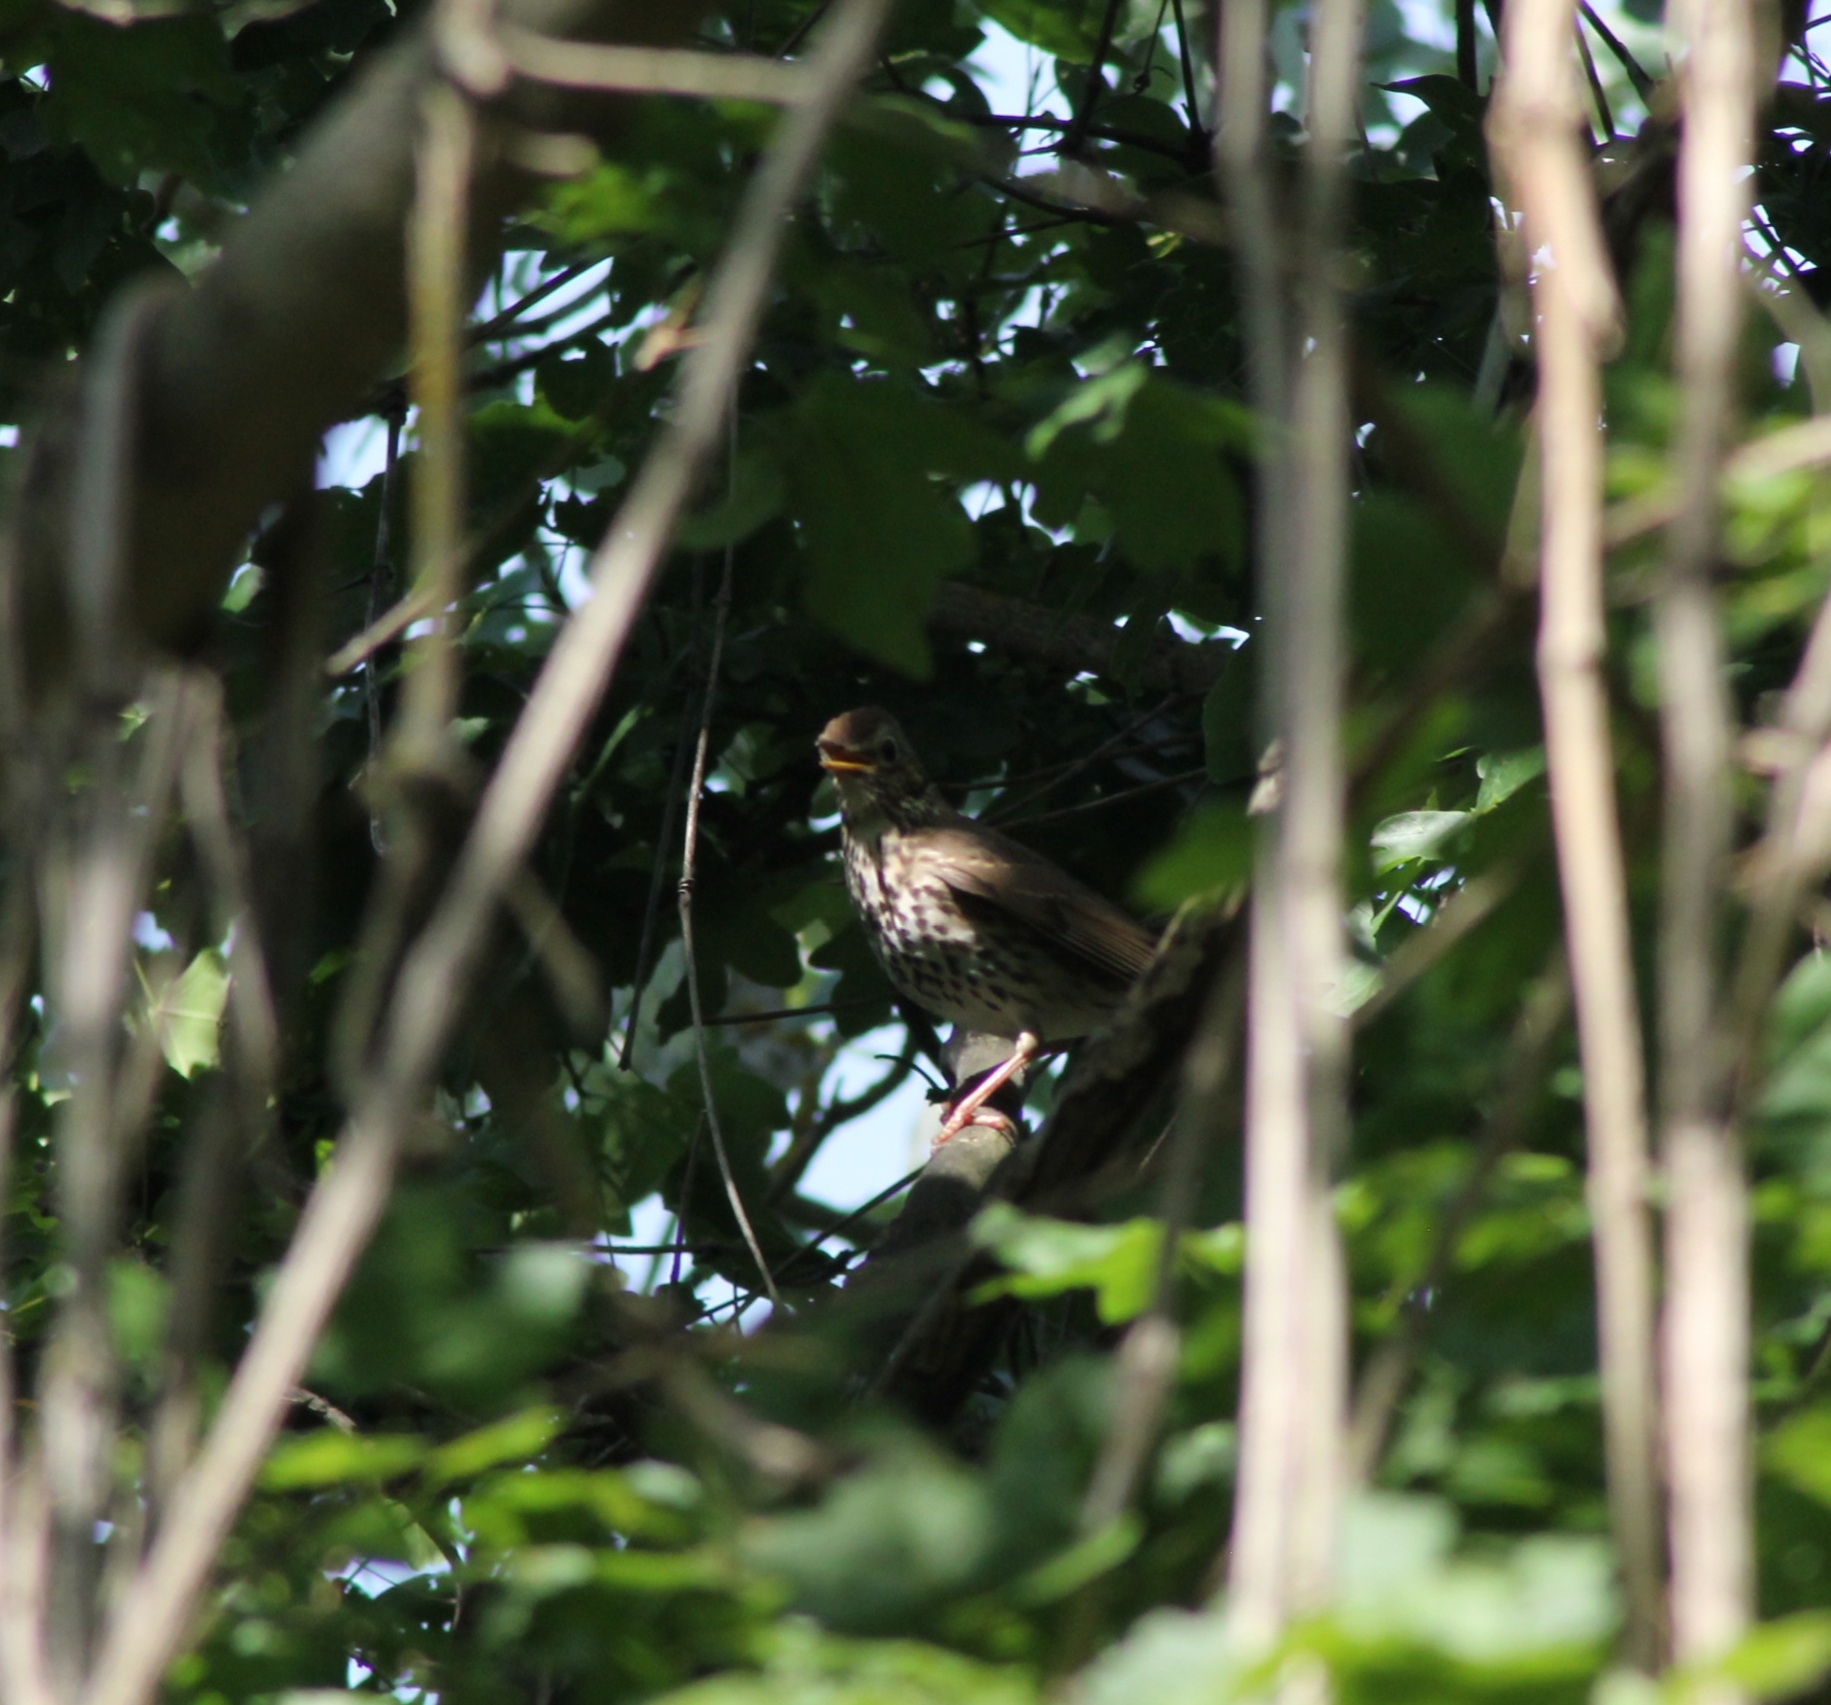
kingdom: Animalia
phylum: Chordata
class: Aves
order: Passeriformes
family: Turdidae
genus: Turdus
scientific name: Turdus philomelos
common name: Song thrush
